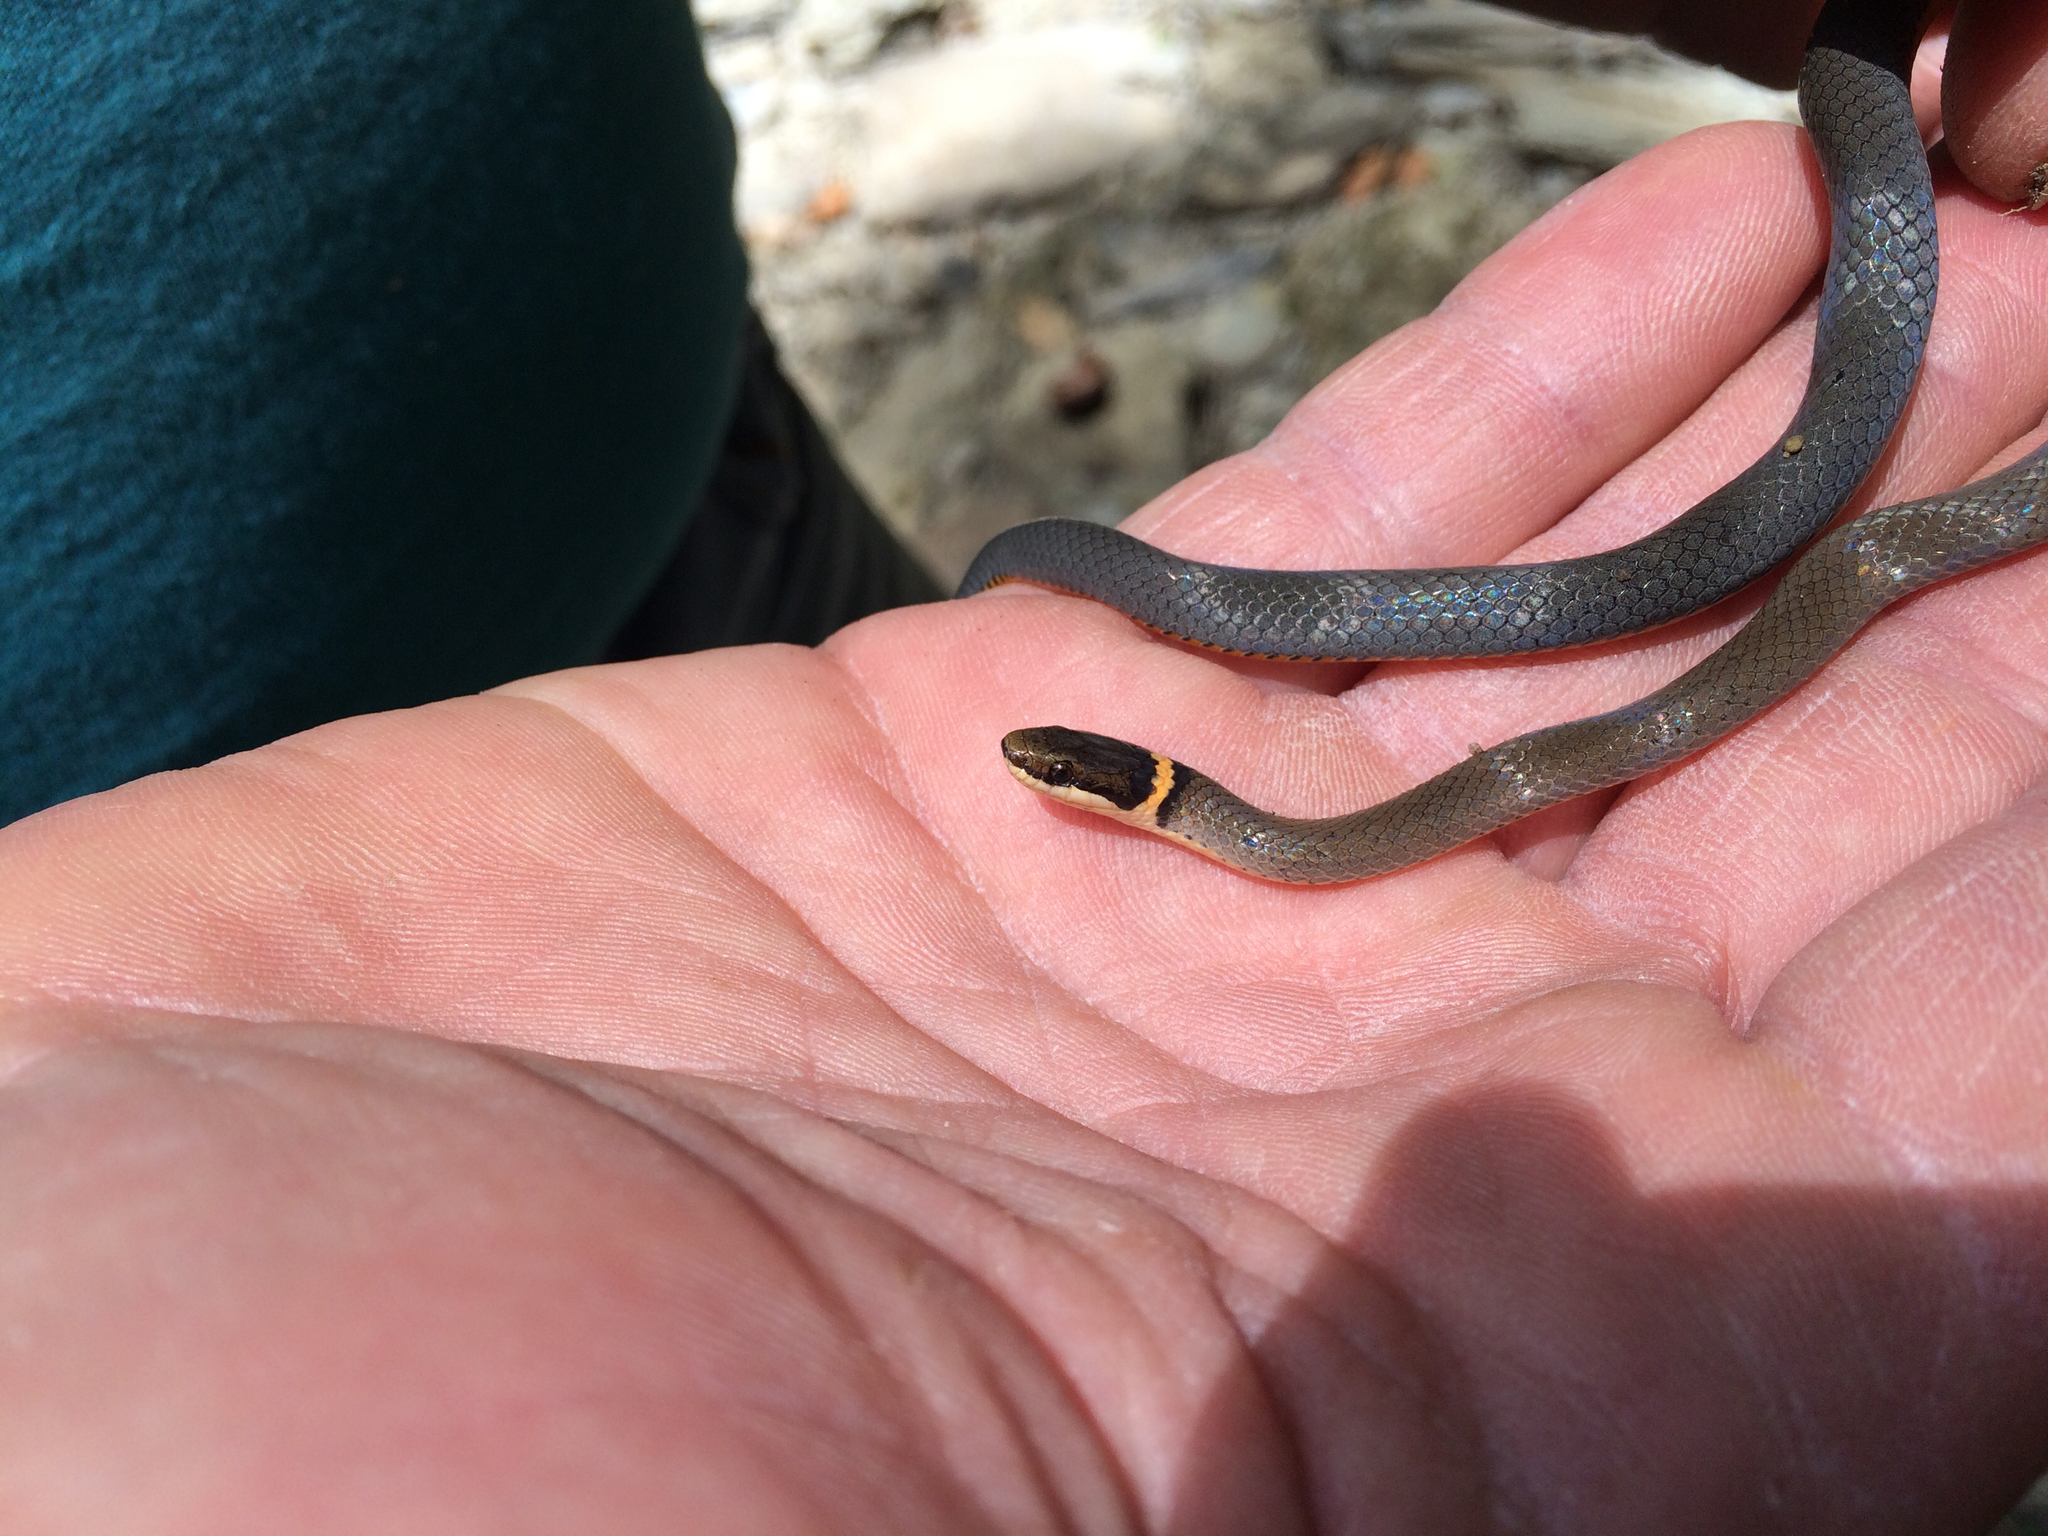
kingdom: Animalia
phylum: Chordata
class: Squamata
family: Colubridae
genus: Diadophis
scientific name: Diadophis punctatus
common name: Ringneck snake
